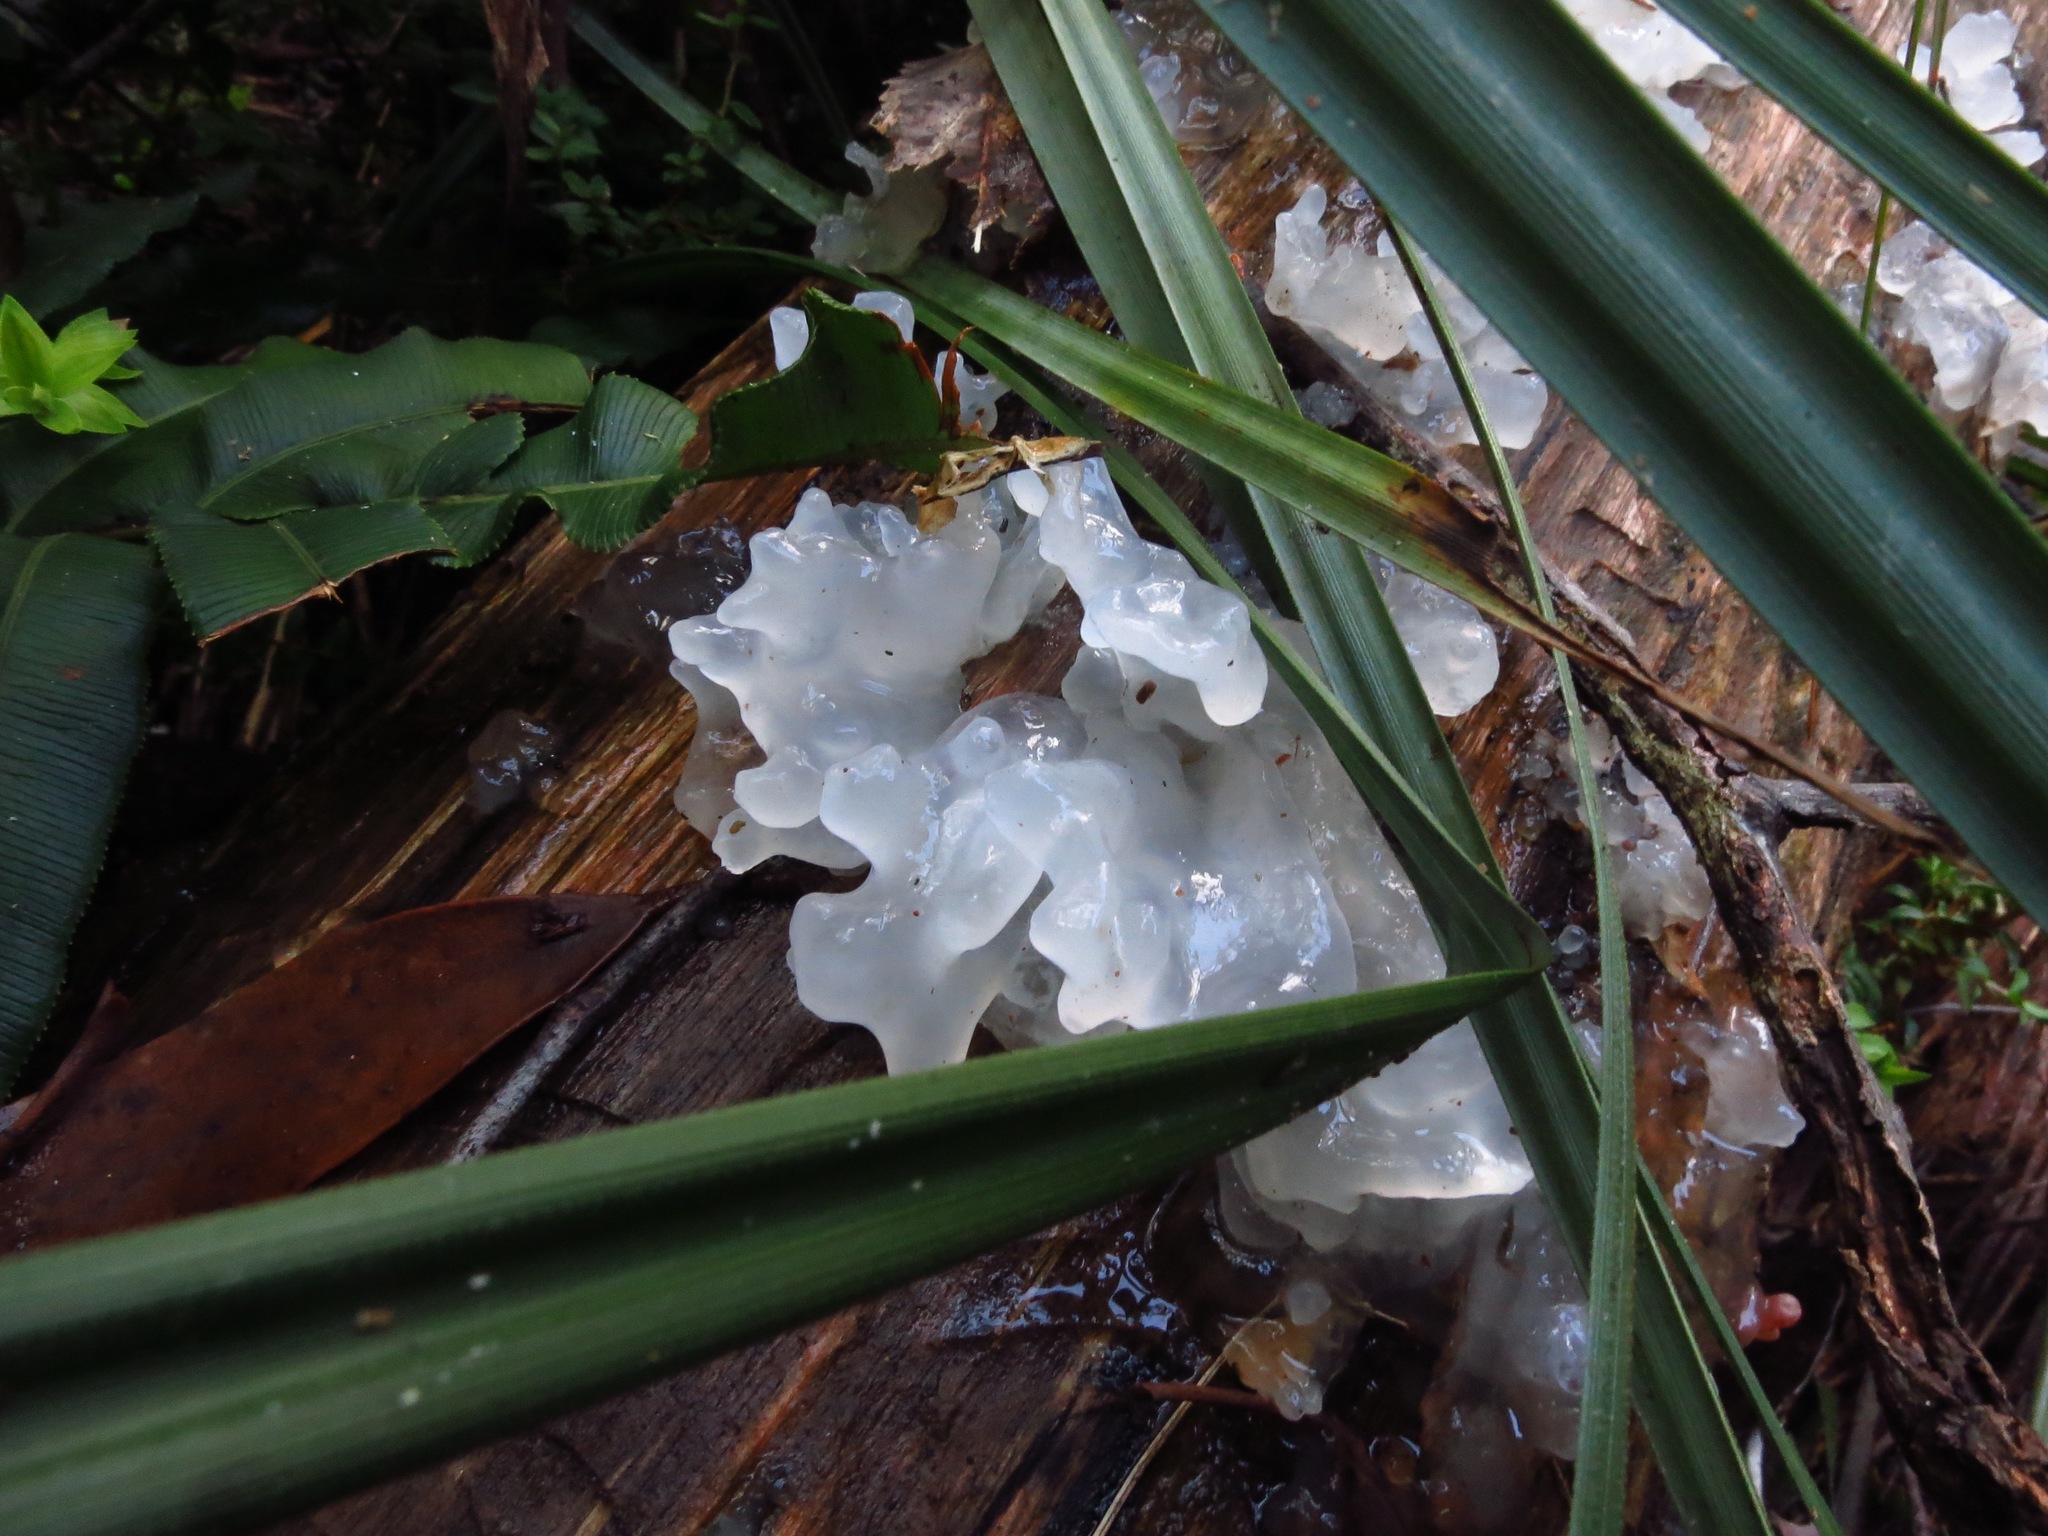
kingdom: Fungi
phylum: Basidiomycota
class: Tremellomycetes
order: Tremellales
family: Tremellaceae
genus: Tremella
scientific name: Tremella fuciformis
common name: Snow fungus
